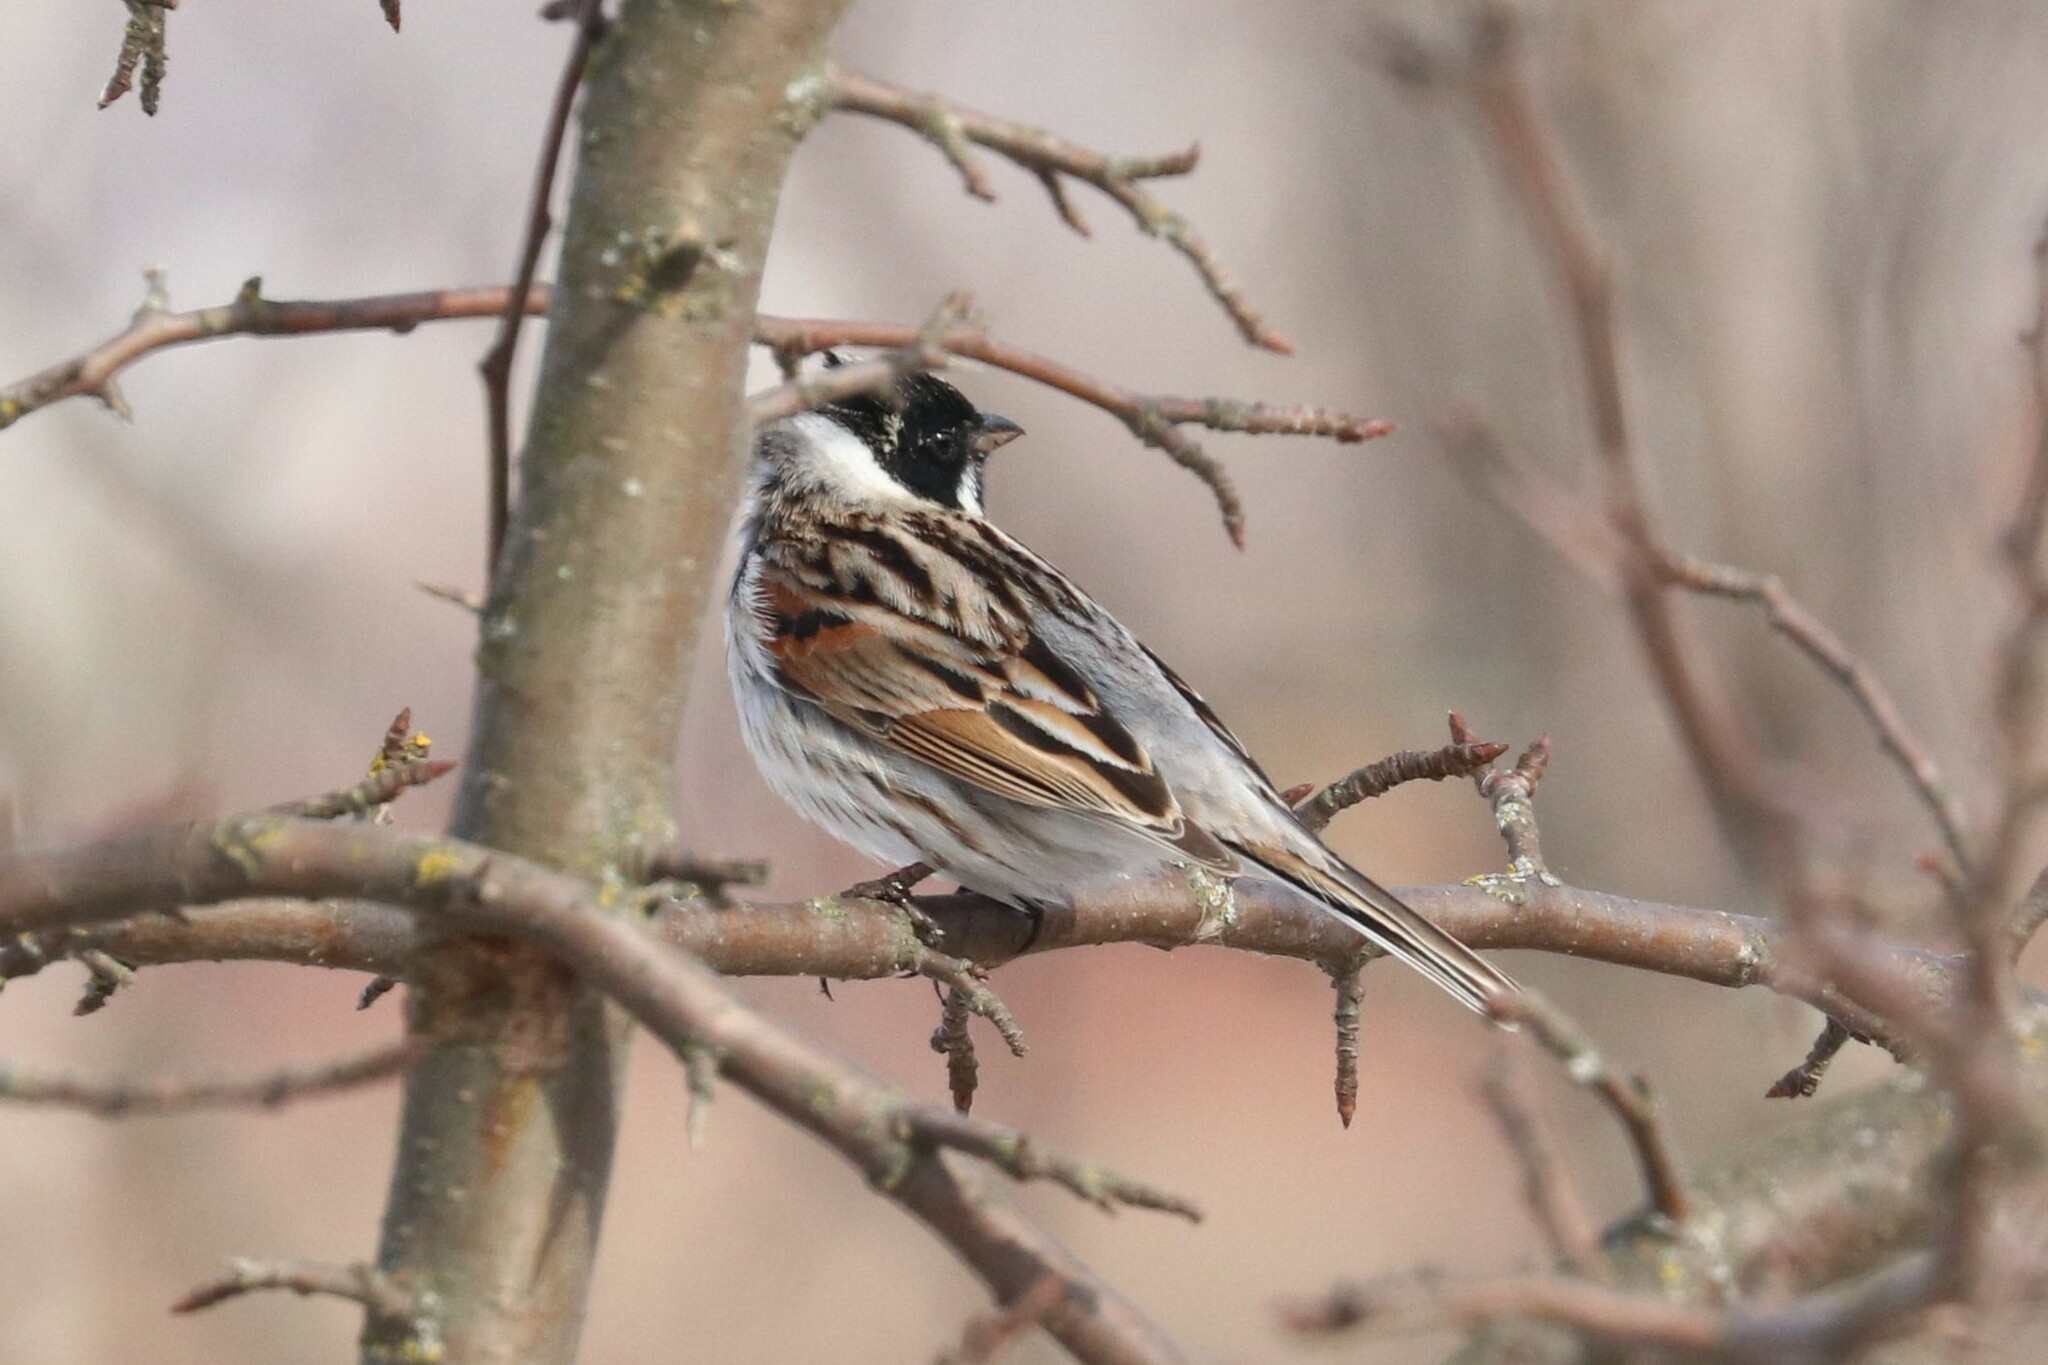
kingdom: Animalia
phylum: Chordata
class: Aves
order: Passeriformes
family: Emberizidae
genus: Emberiza
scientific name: Emberiza schoeniclus
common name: Reed bunting
